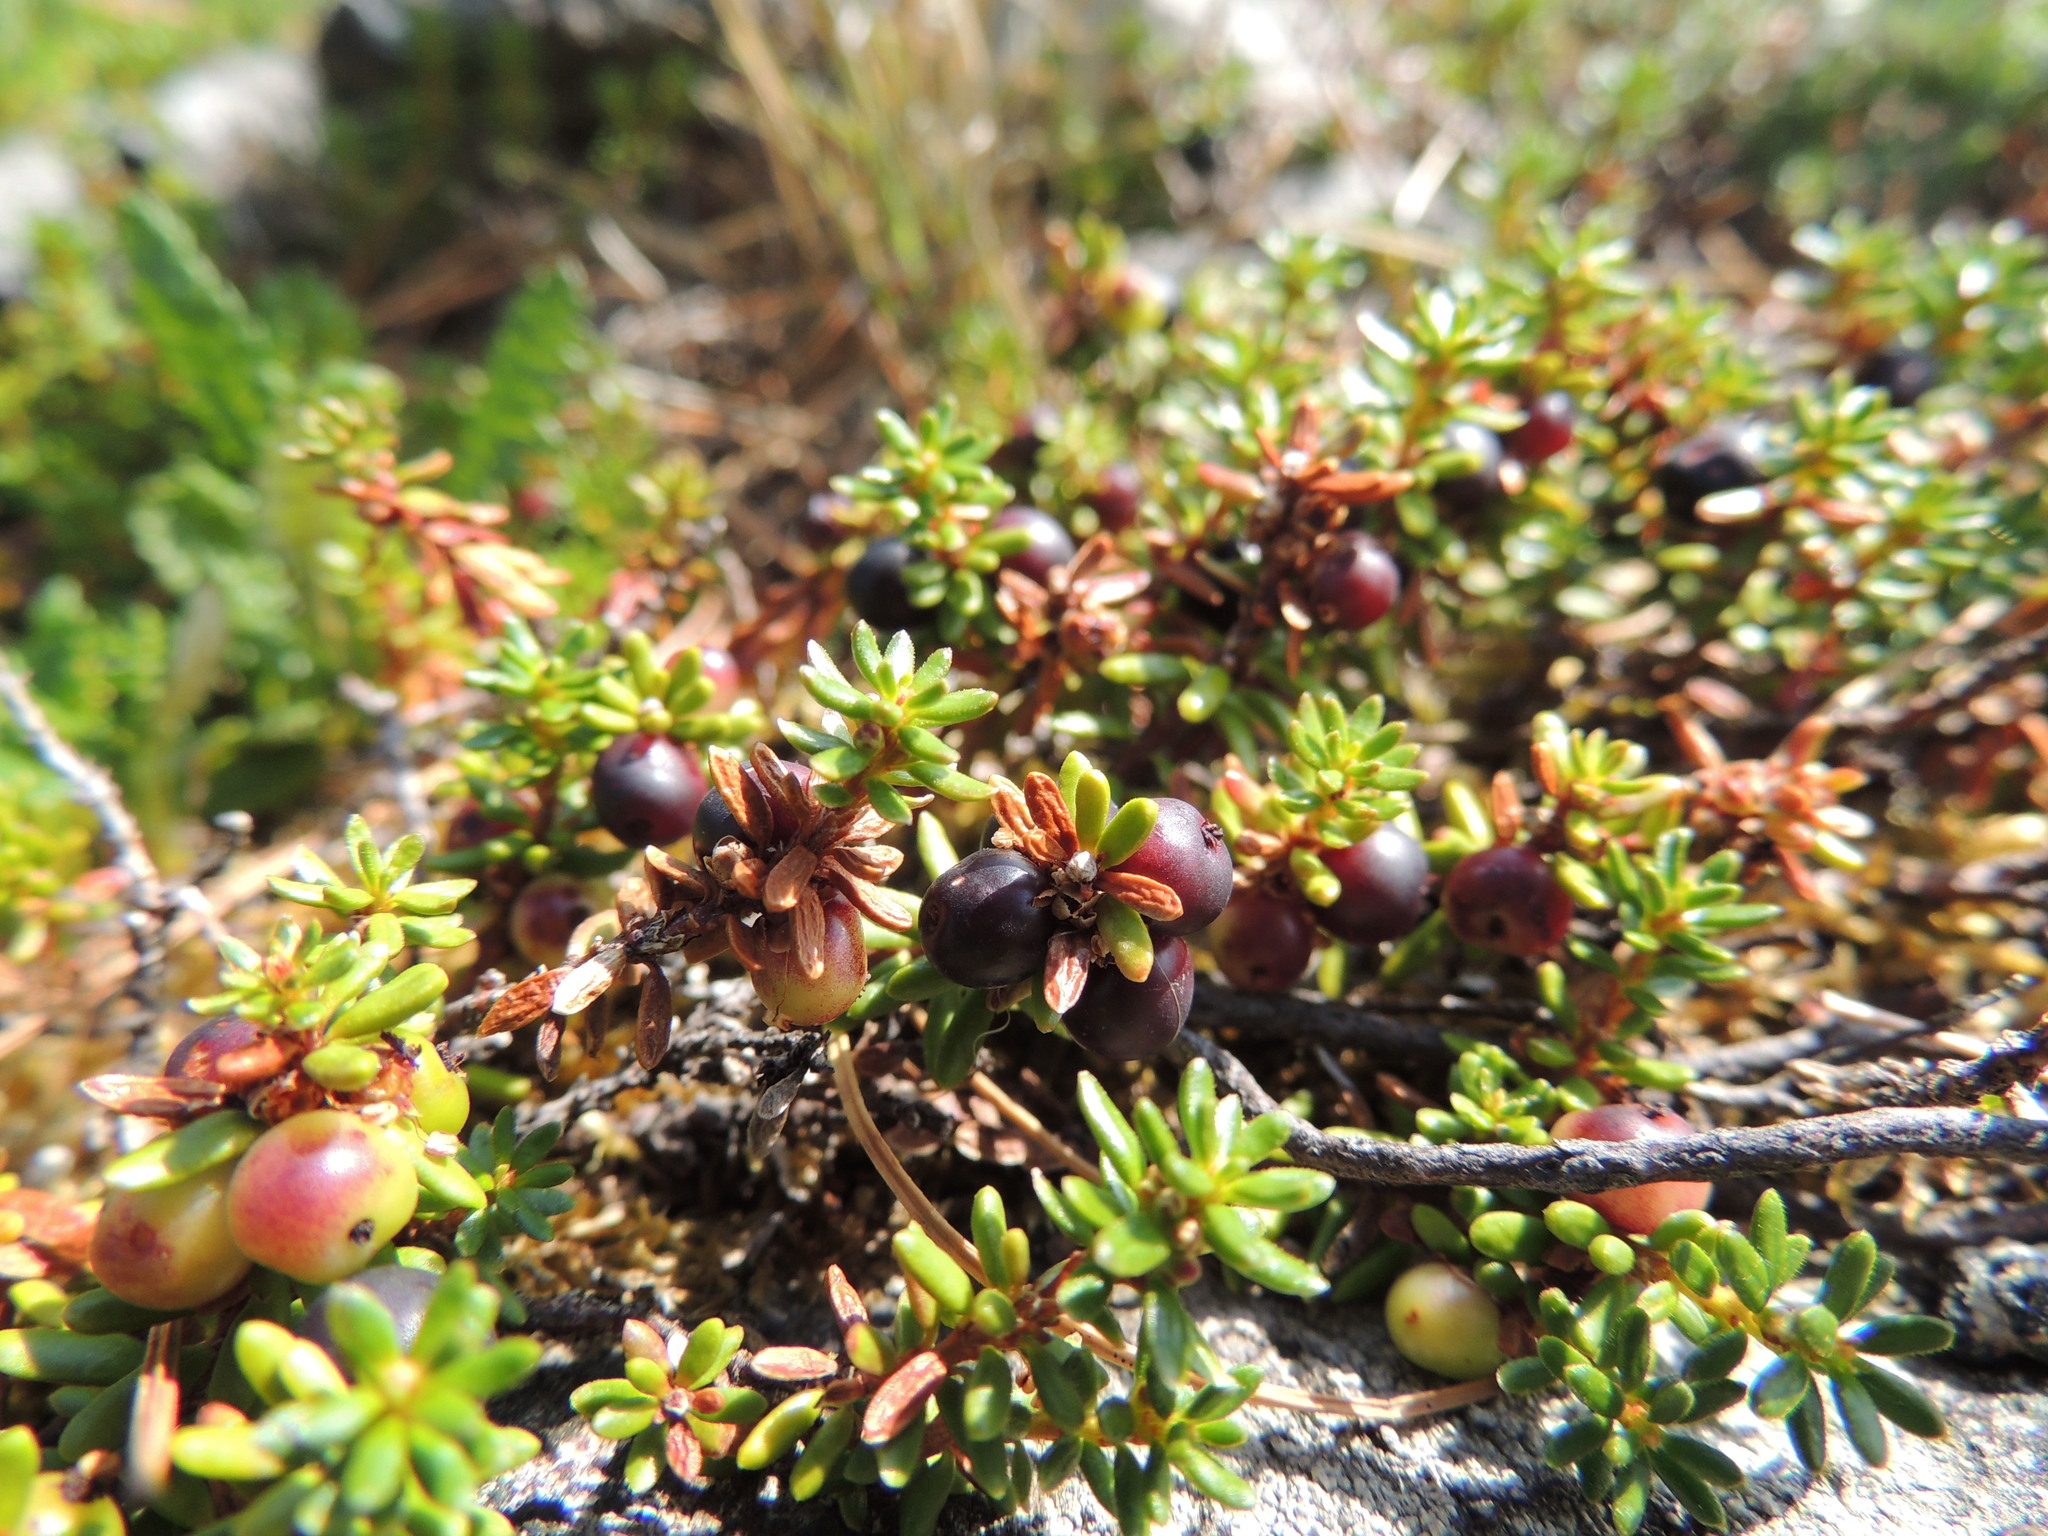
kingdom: Plantae
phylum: Tracheophyta
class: Magnoliopsida
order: Ericales
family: Ericaceae
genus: Empetrum
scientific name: Empetrum nigrum
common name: Black crowberry
